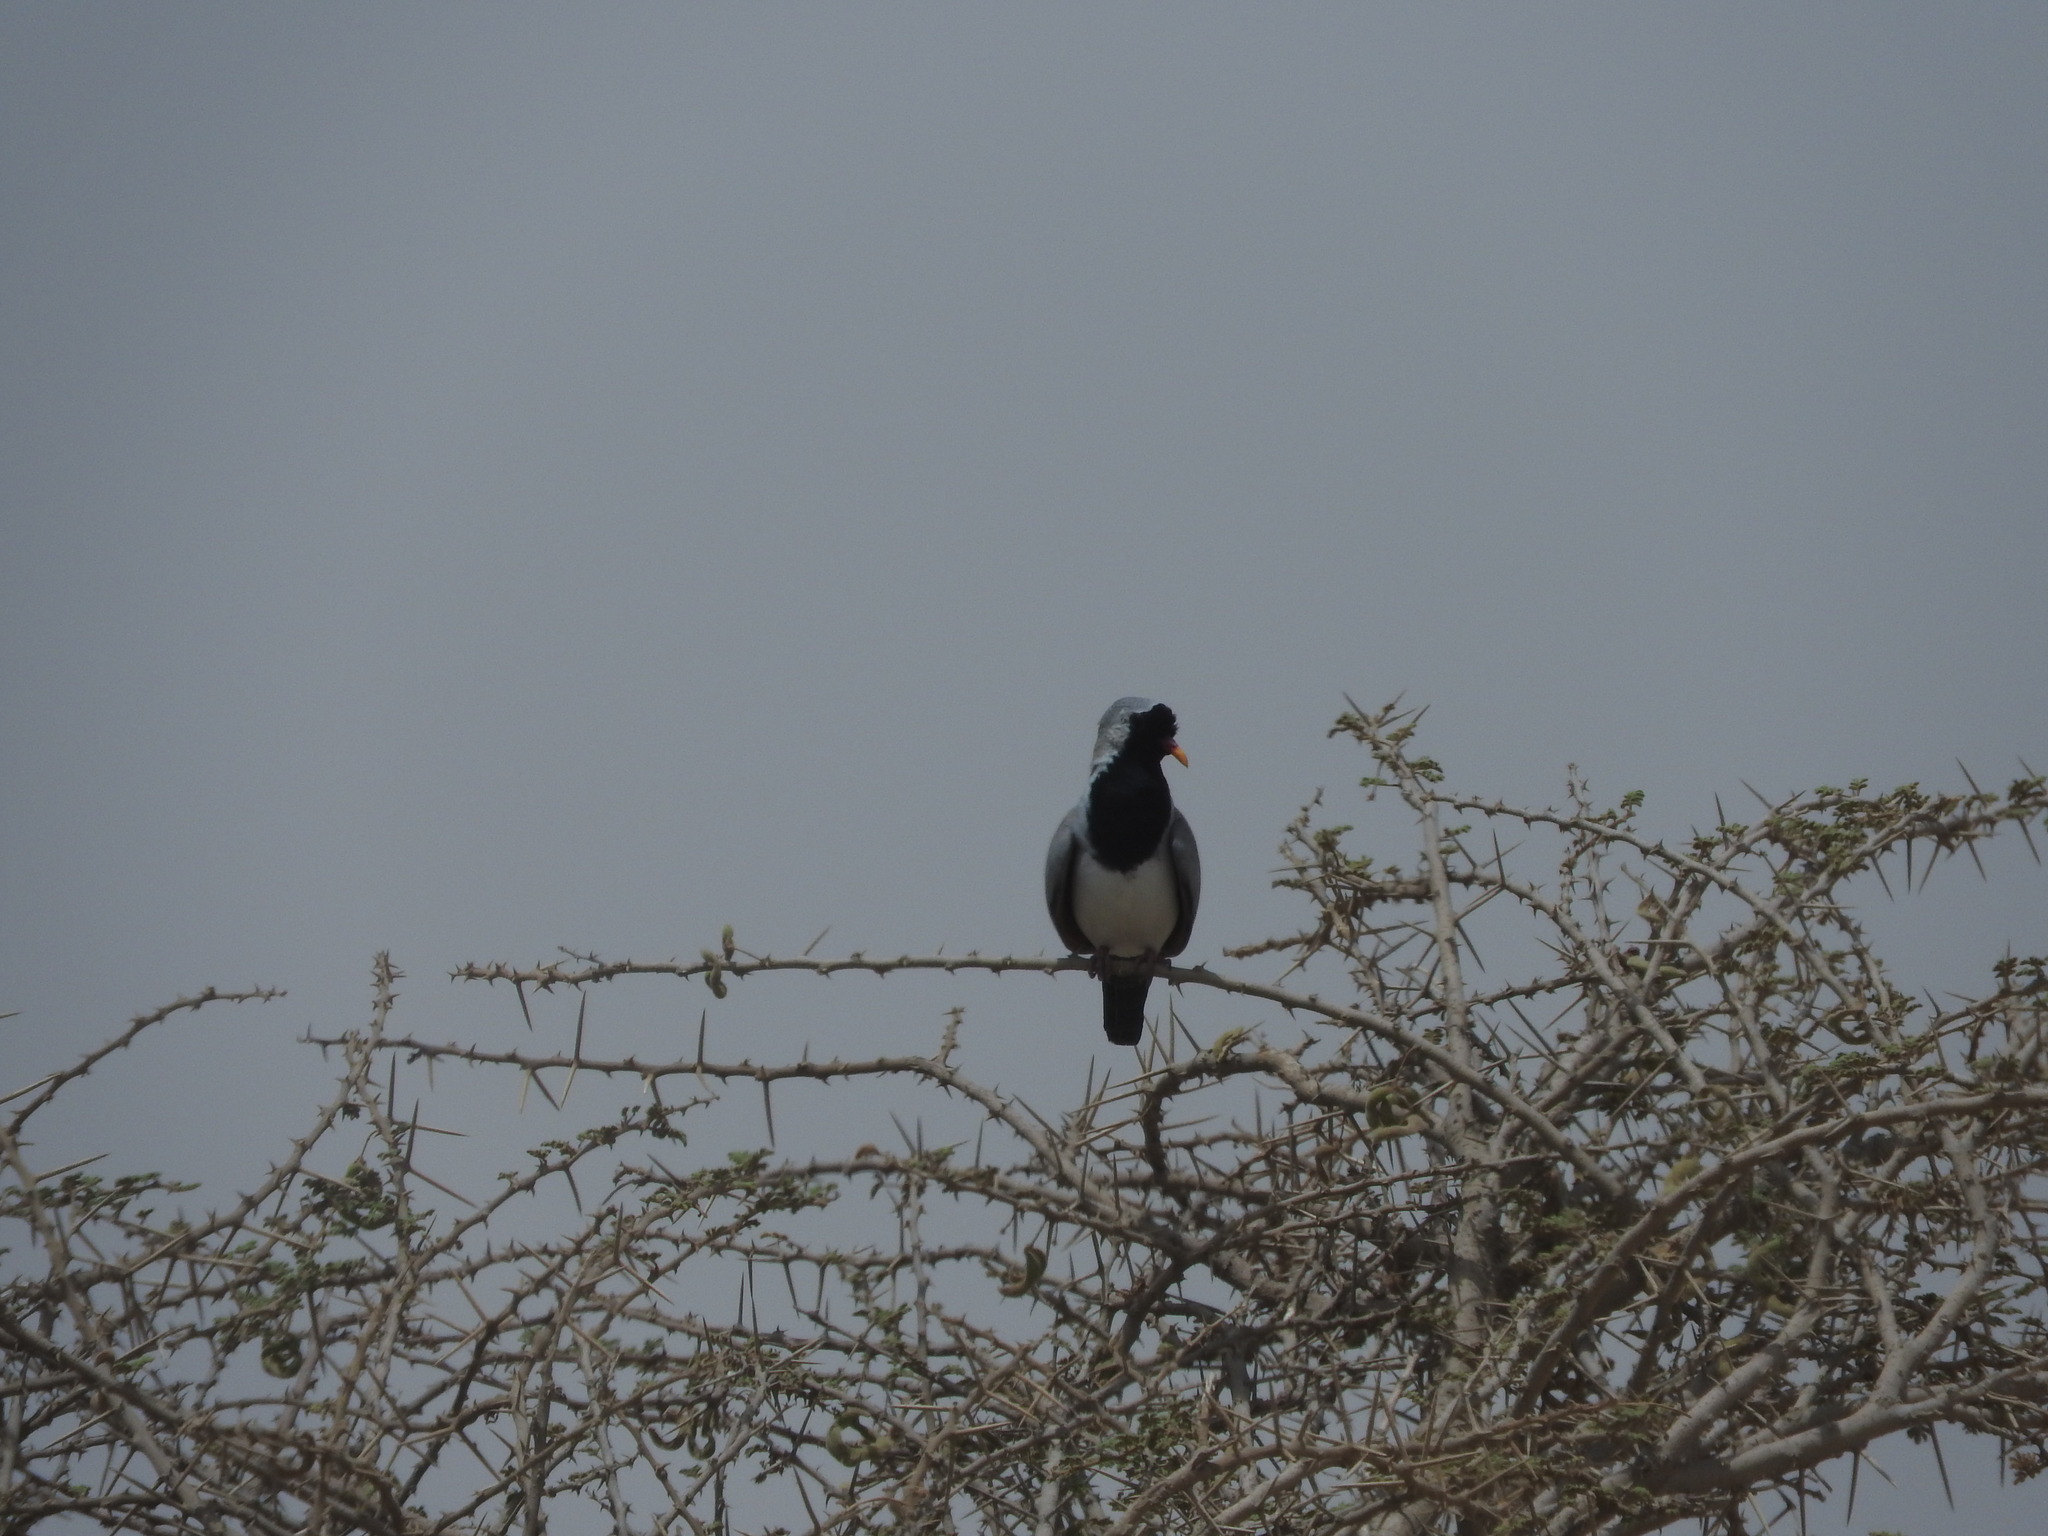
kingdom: Animalia
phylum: Chordata
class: Aves
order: Columbiformes
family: Columbidae
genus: Oena
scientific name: Oena capensis
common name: Namaqua dove
